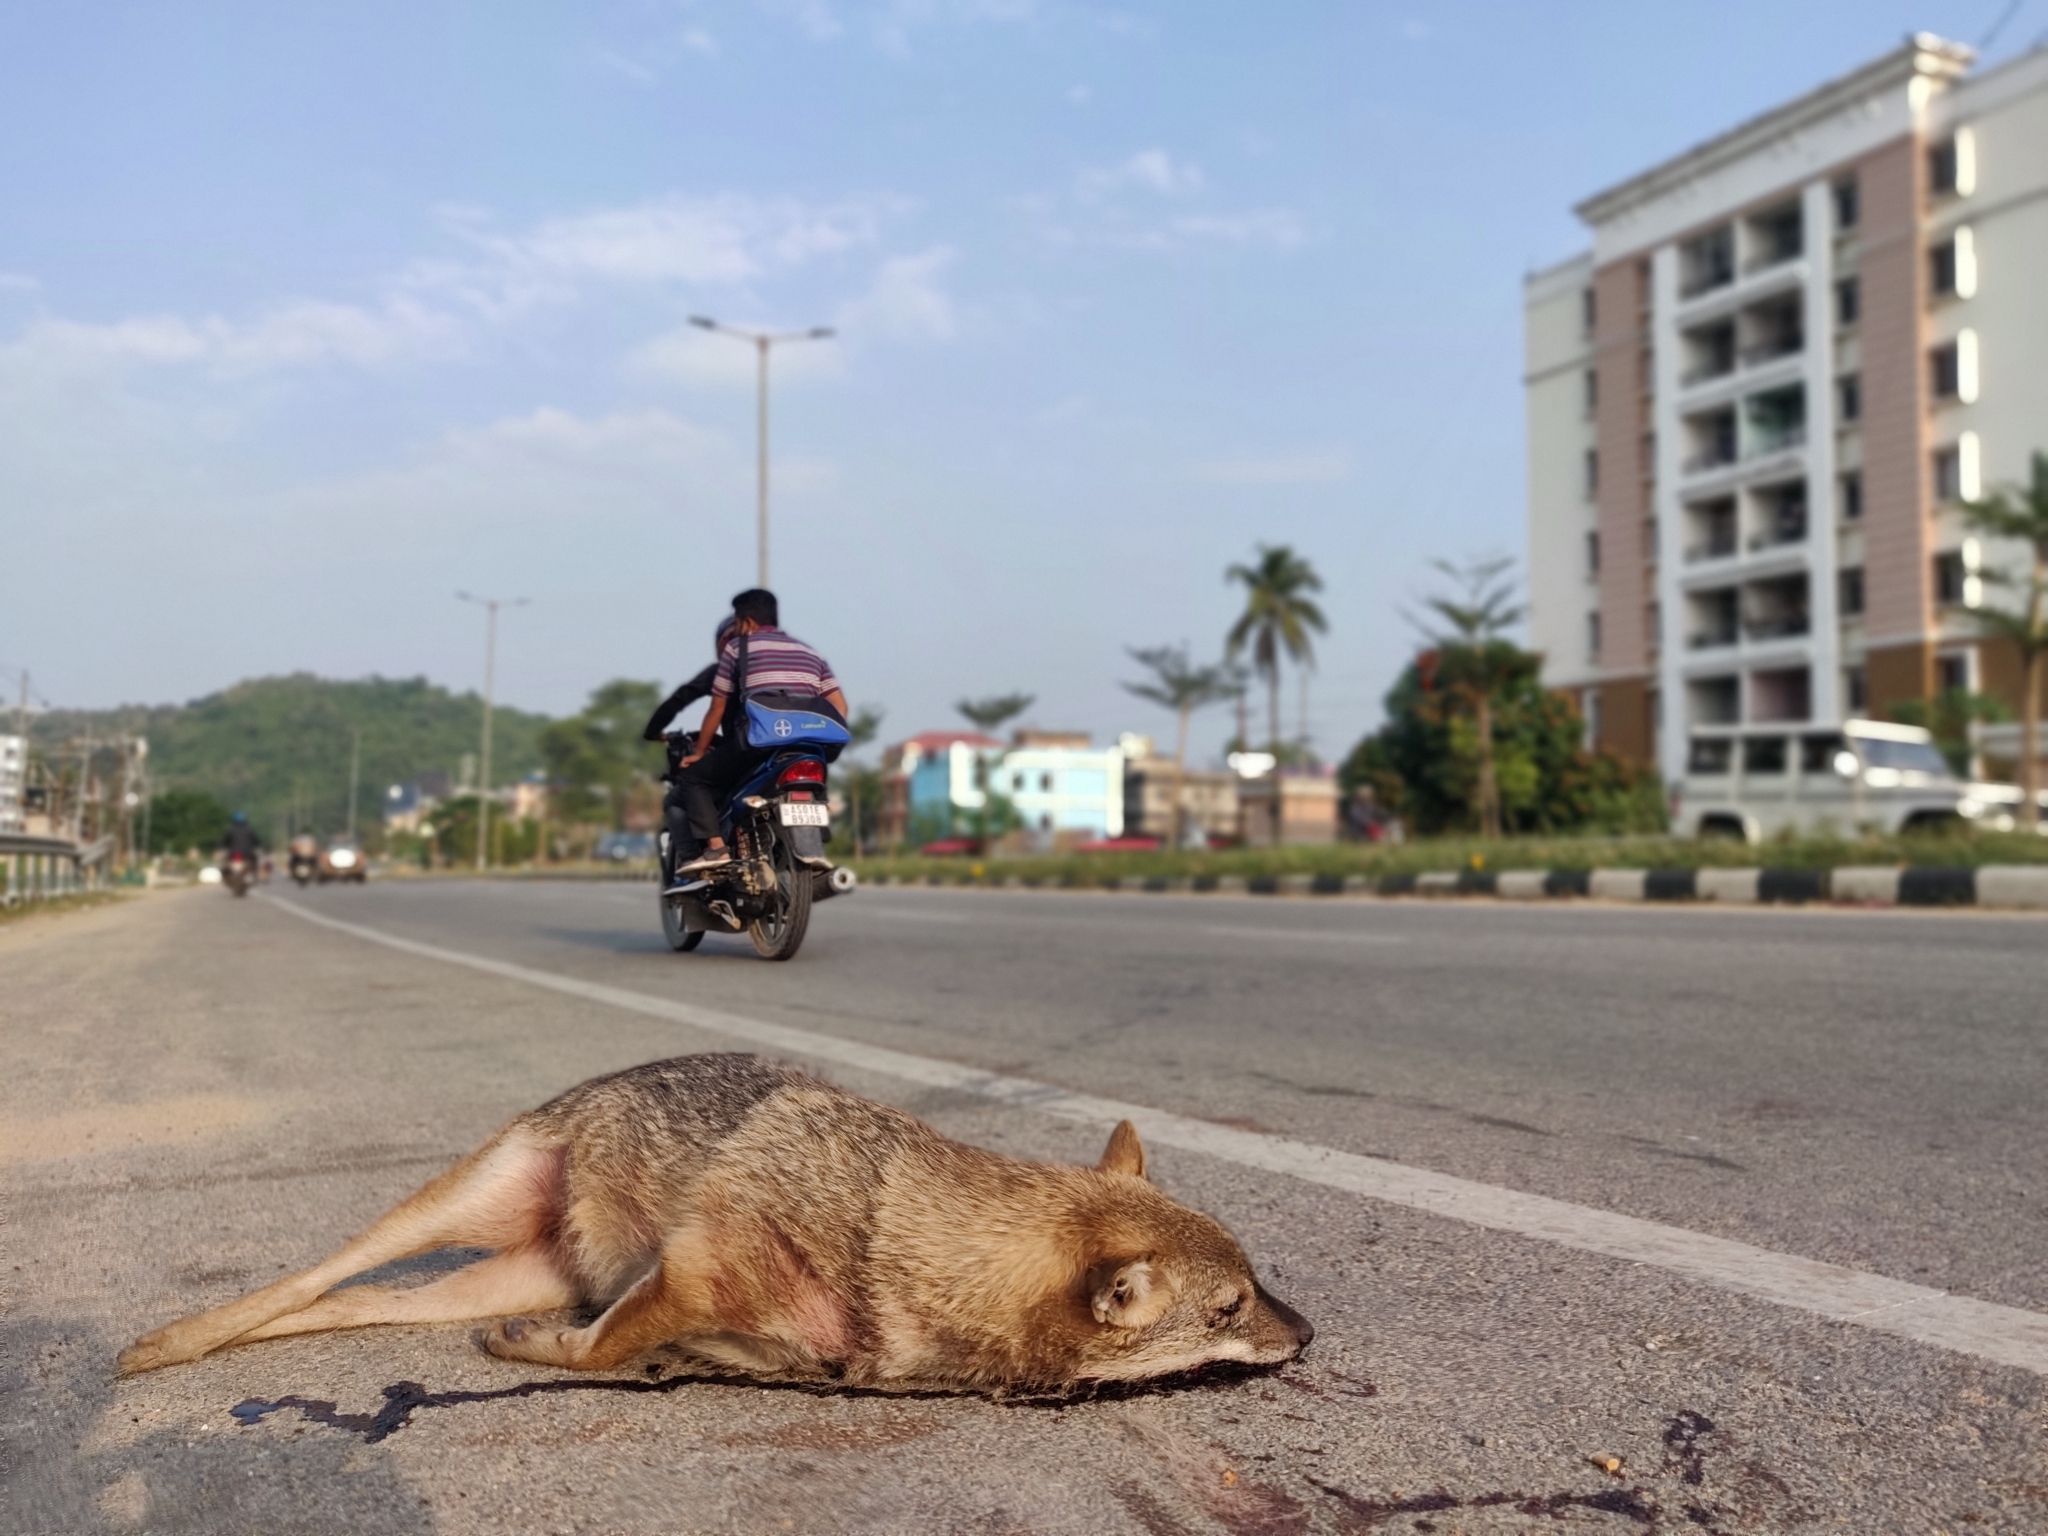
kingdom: Animalia
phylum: Chordata
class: Mammalia
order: Carnivora
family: Canidae
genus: Canis
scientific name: Canis aureus
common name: Golden jackal
